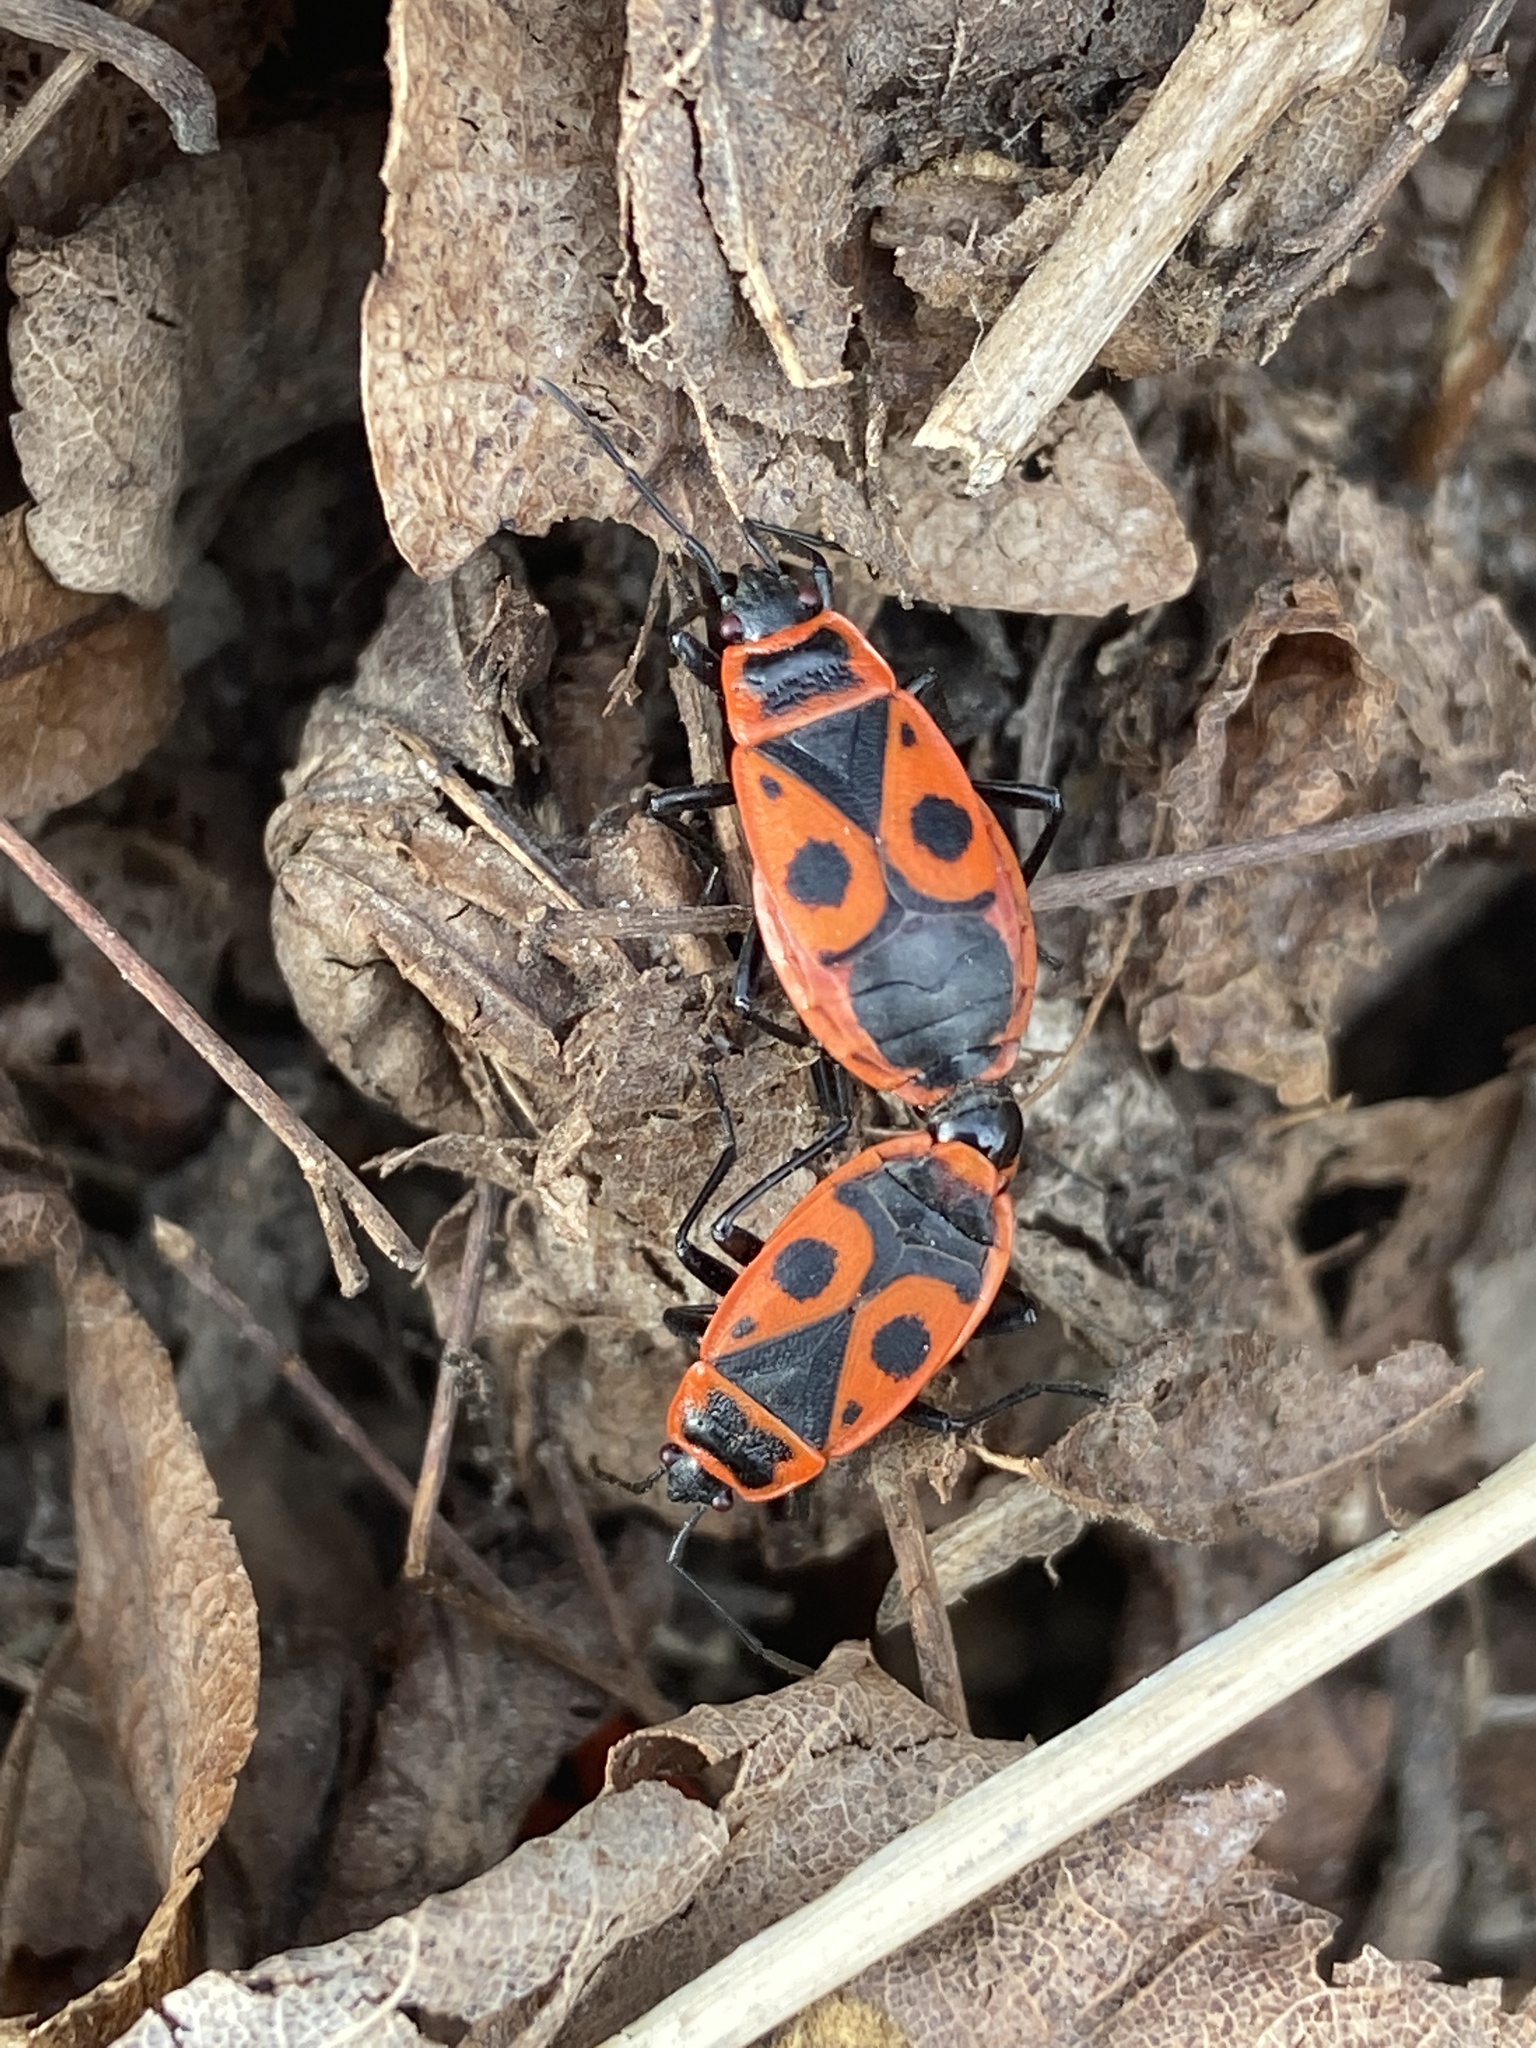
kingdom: Animalia
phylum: Arthropoda
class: Insecta
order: Hemiptera
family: Pyrrhocoridae
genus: Pyrrhocoris
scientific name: Pyrrhocoris apterus
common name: Firebug
